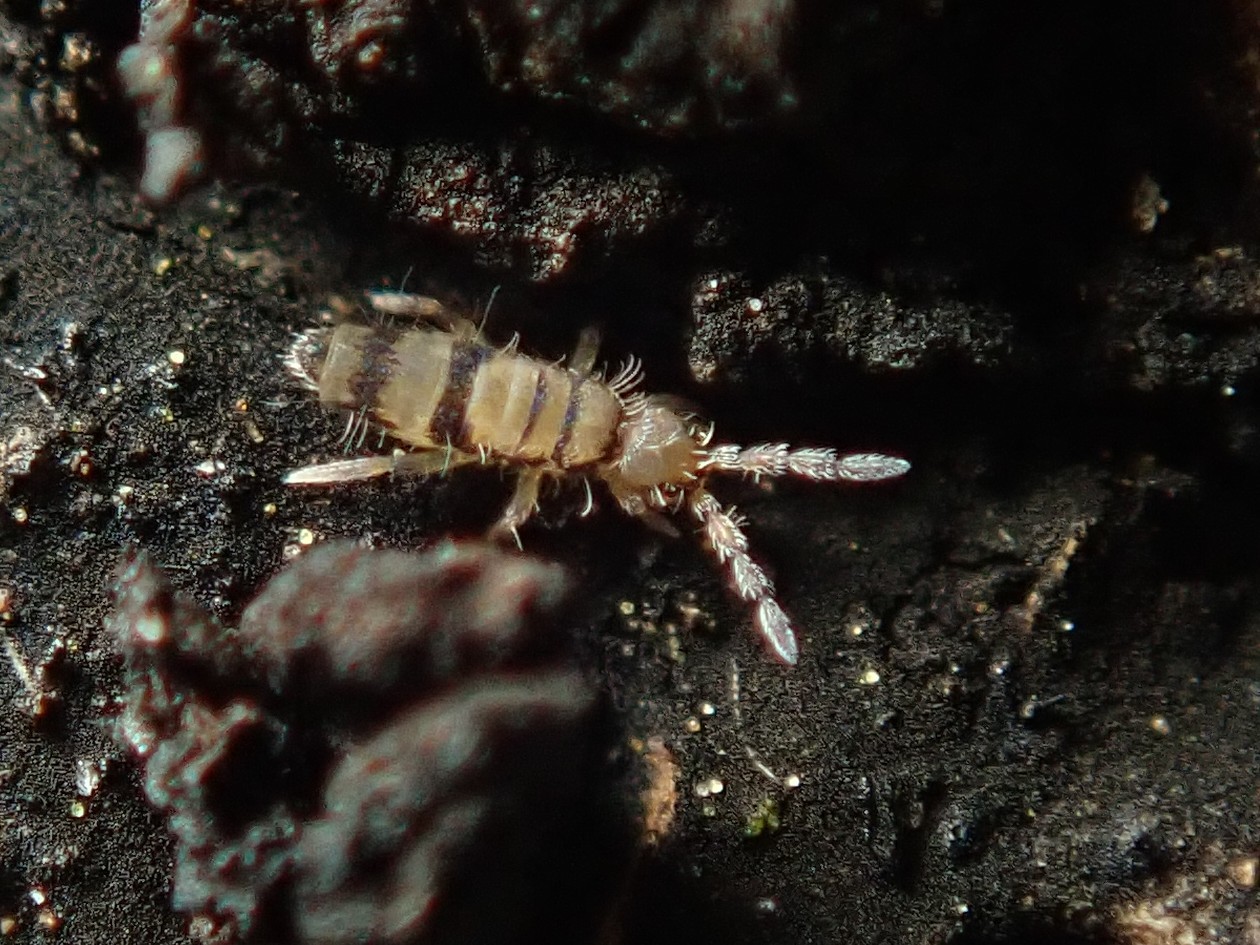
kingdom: Animalia
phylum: Arthropoda
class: Collembola
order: Entomobryomorpha
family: Entomobryidae
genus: Entomobrya
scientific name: Entomobrya corticalis
